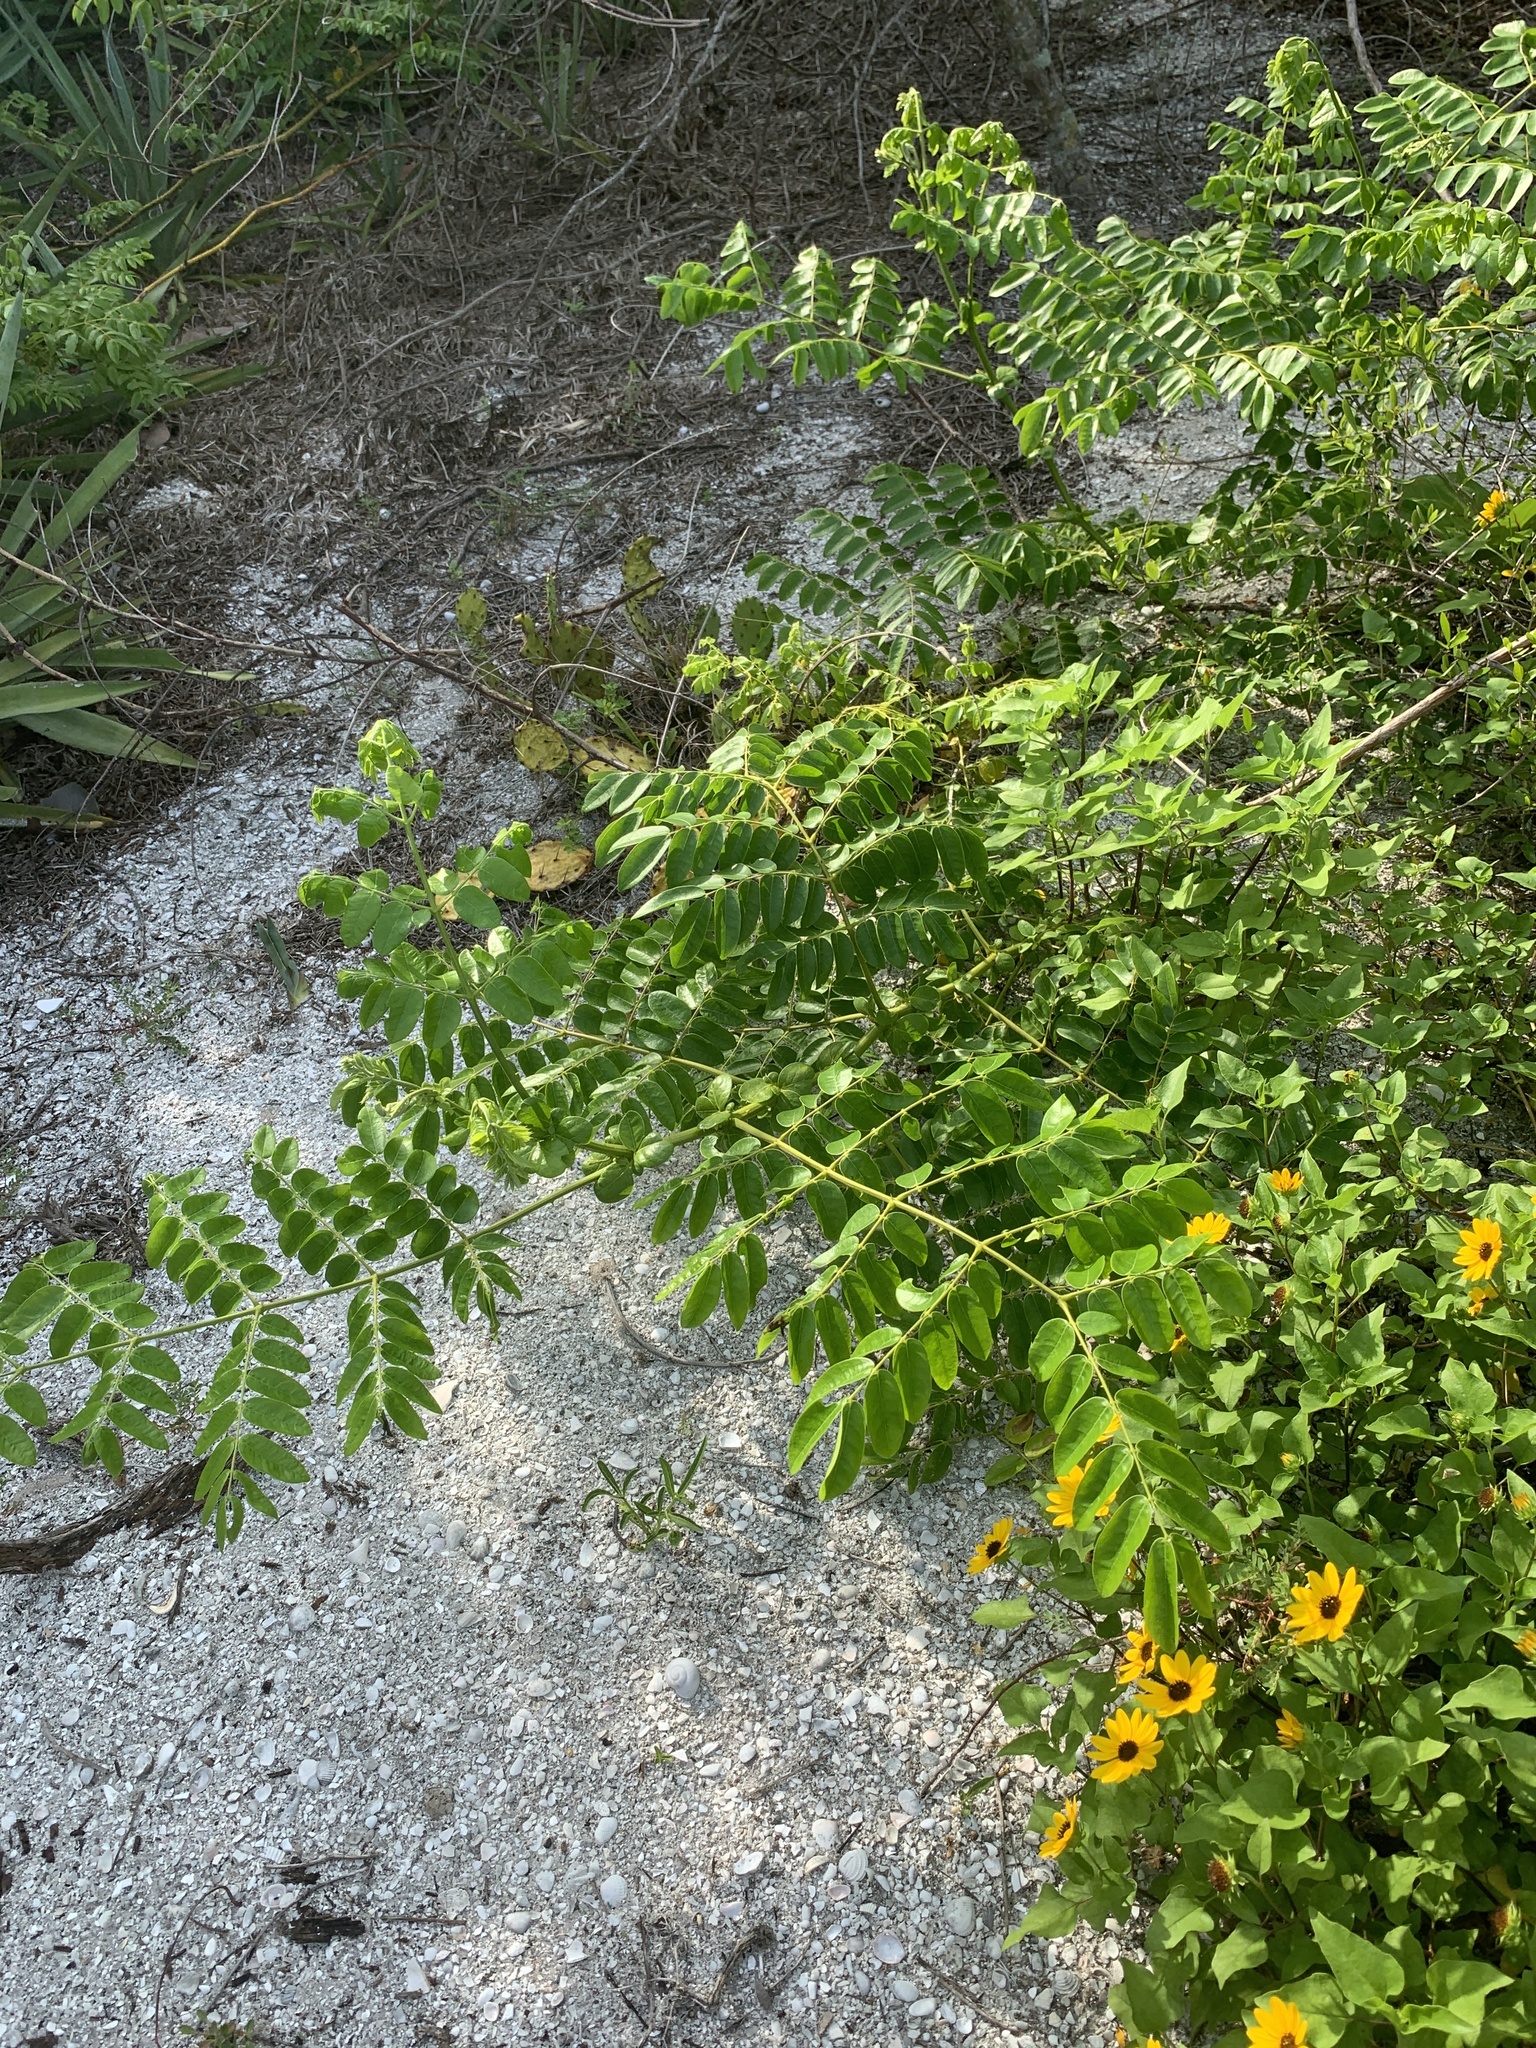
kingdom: Plantae
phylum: Tracheophyta
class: Magnoliopsida
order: Fabales
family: Fabaceae
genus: Guilandina
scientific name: Guilandina bonduc
